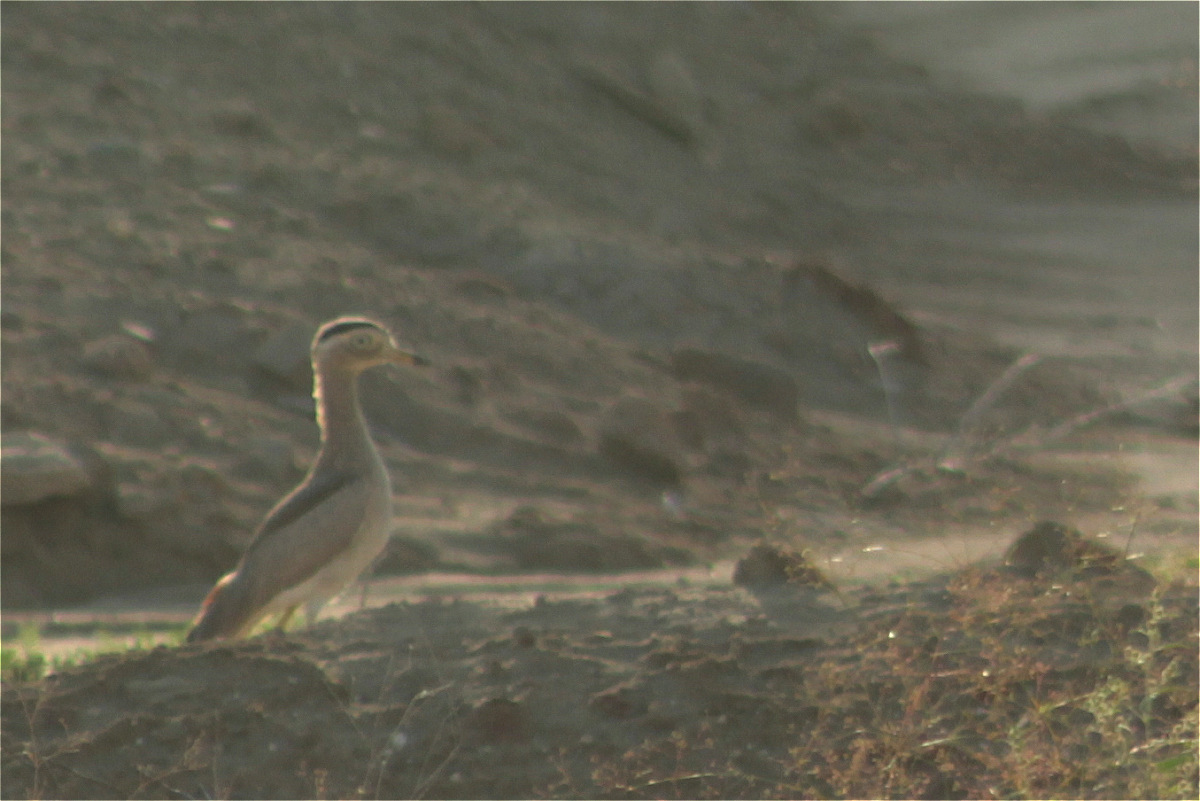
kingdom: Animalia
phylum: Chordata
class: Aves
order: Charadriiformes
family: Burhinidae
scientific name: Burhinidae
